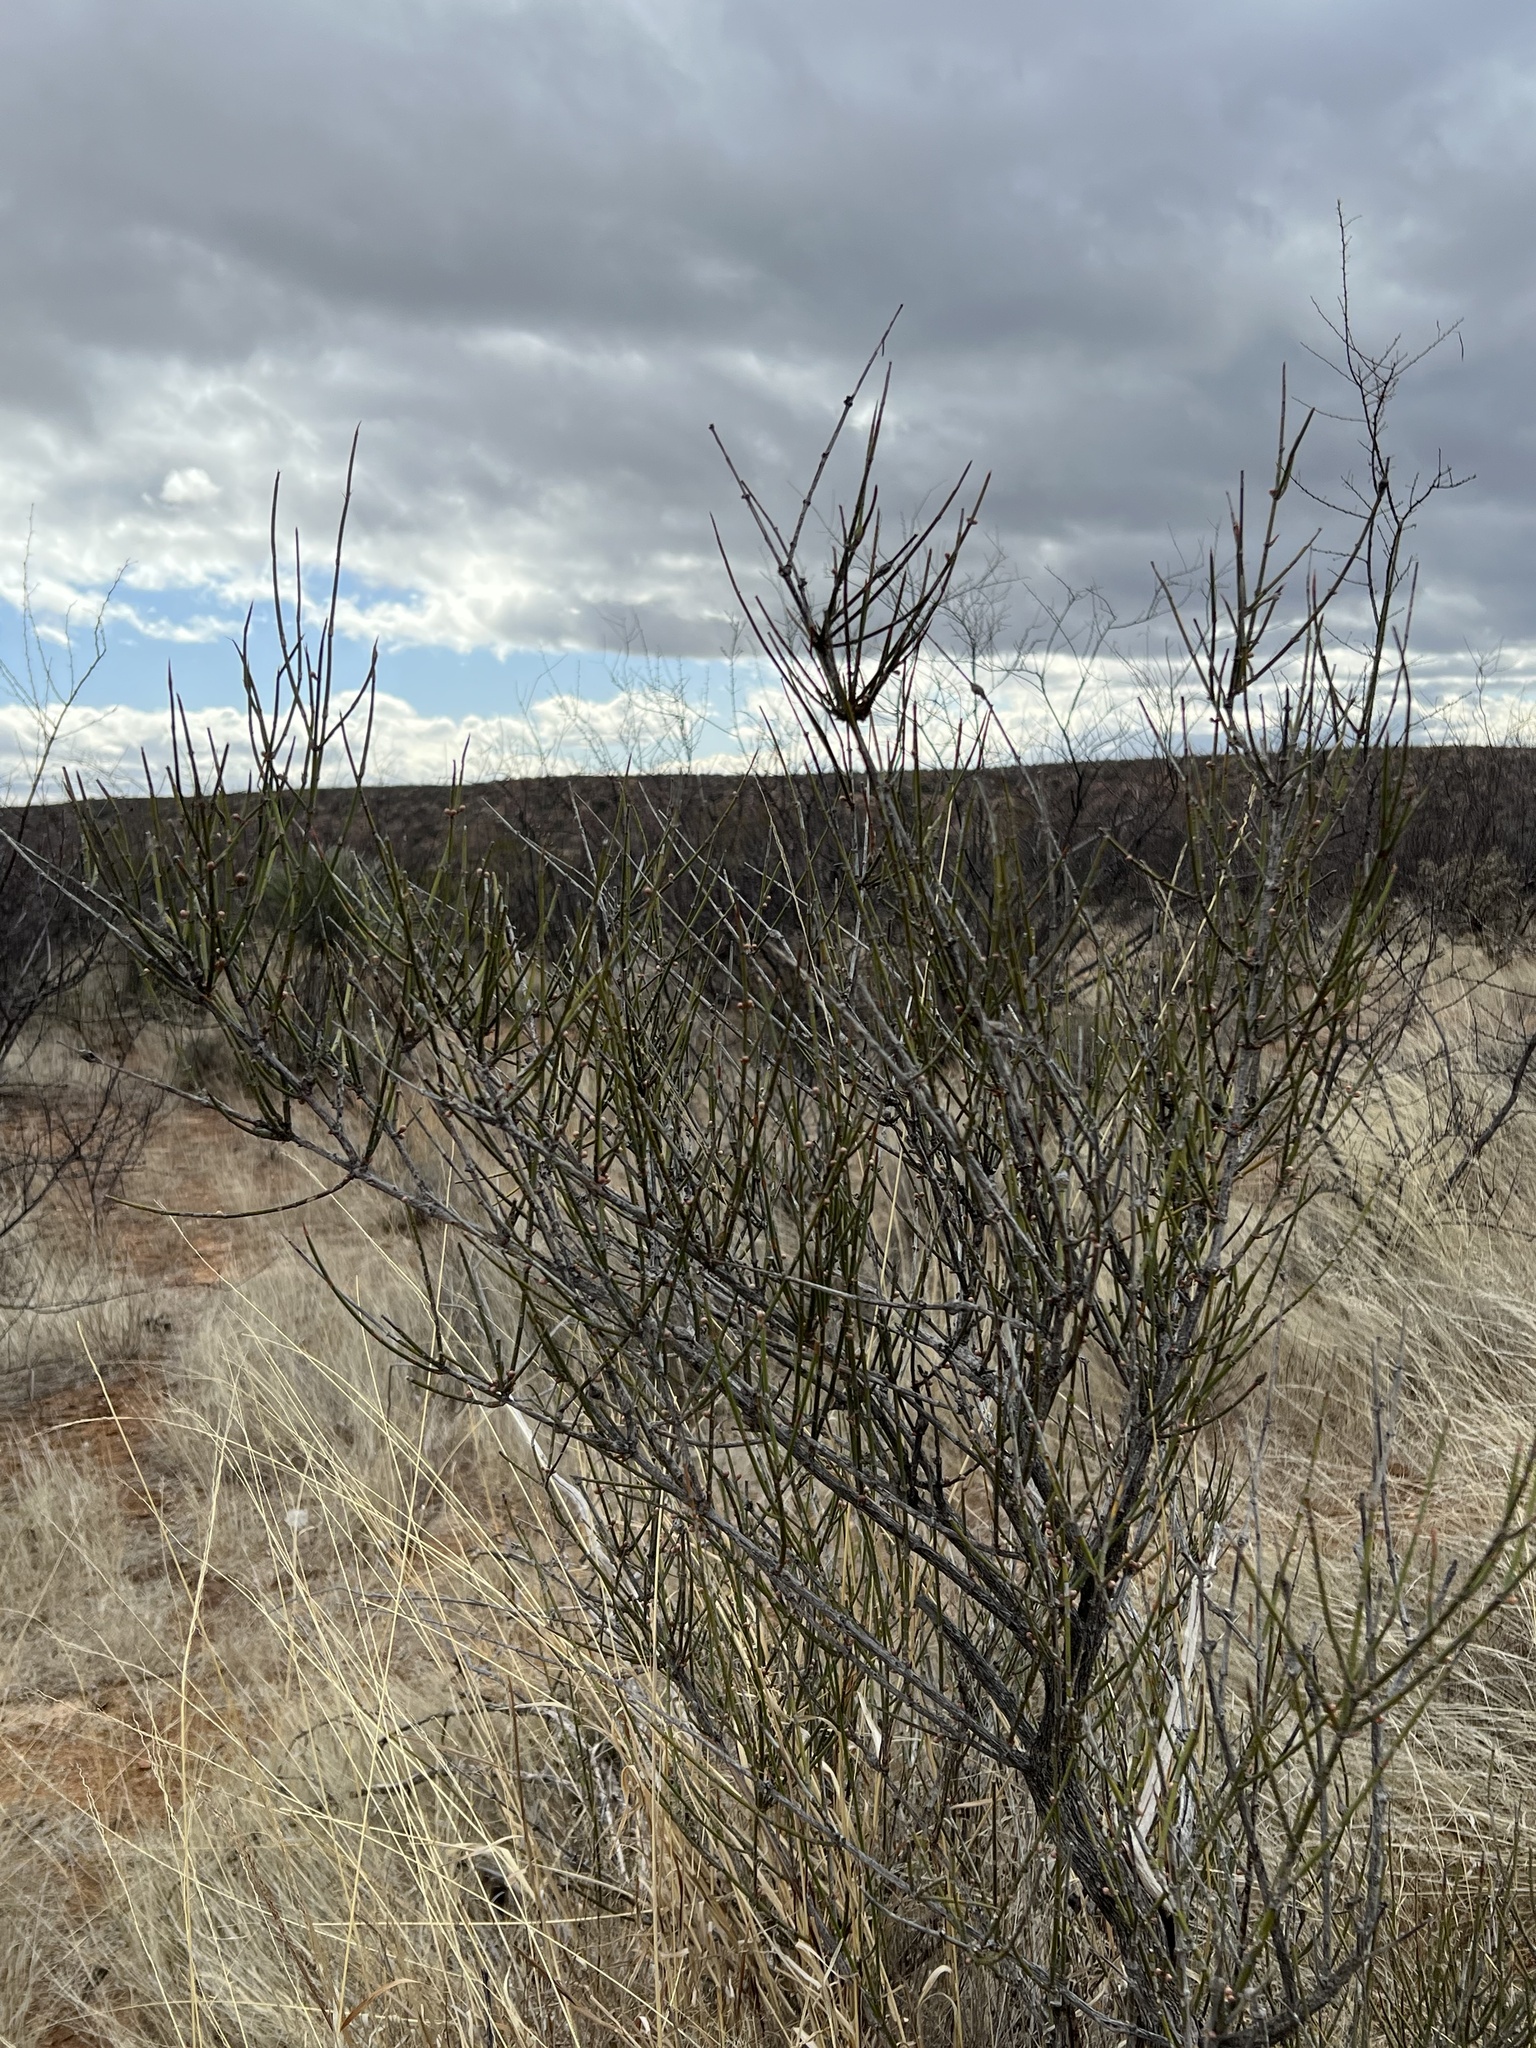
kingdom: Plantae
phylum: Tracheophyta
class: Gnetopsida
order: Ephedrales
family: Ephedraceae
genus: Ephedra
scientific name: Ephedra trifurca
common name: Mexican-tea
